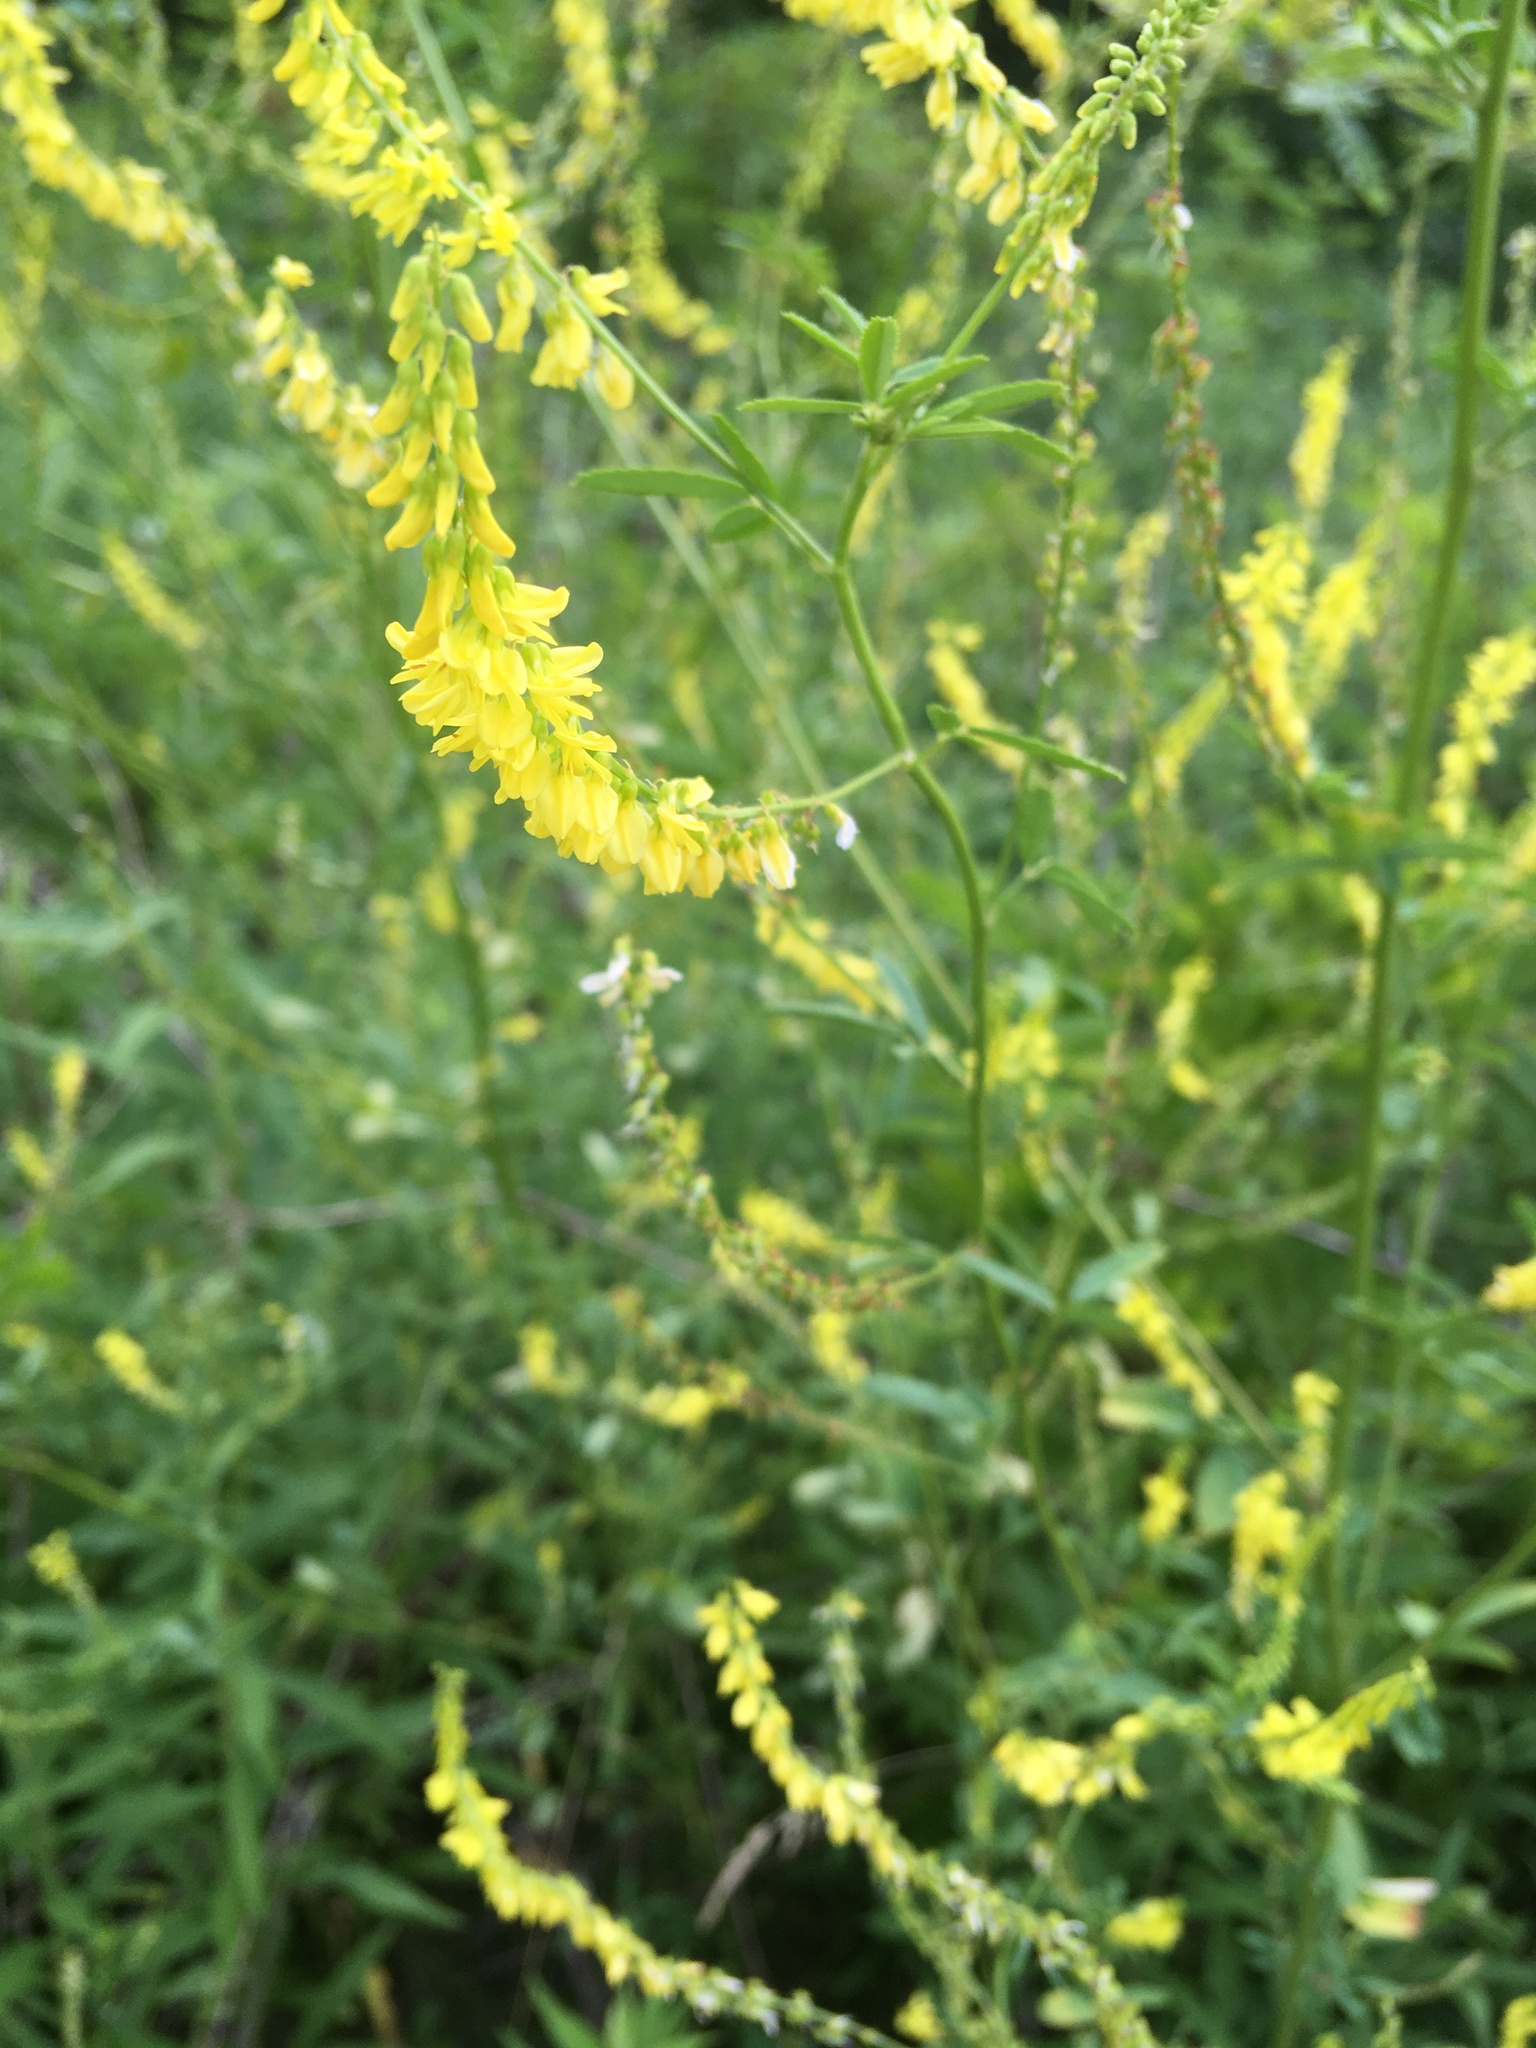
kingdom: Plantae
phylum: Tracheophyta
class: Magnoliopsida
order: Fabales
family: Fabaceae
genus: Melilotus
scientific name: Melilotus officinalis
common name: Sweetclover
